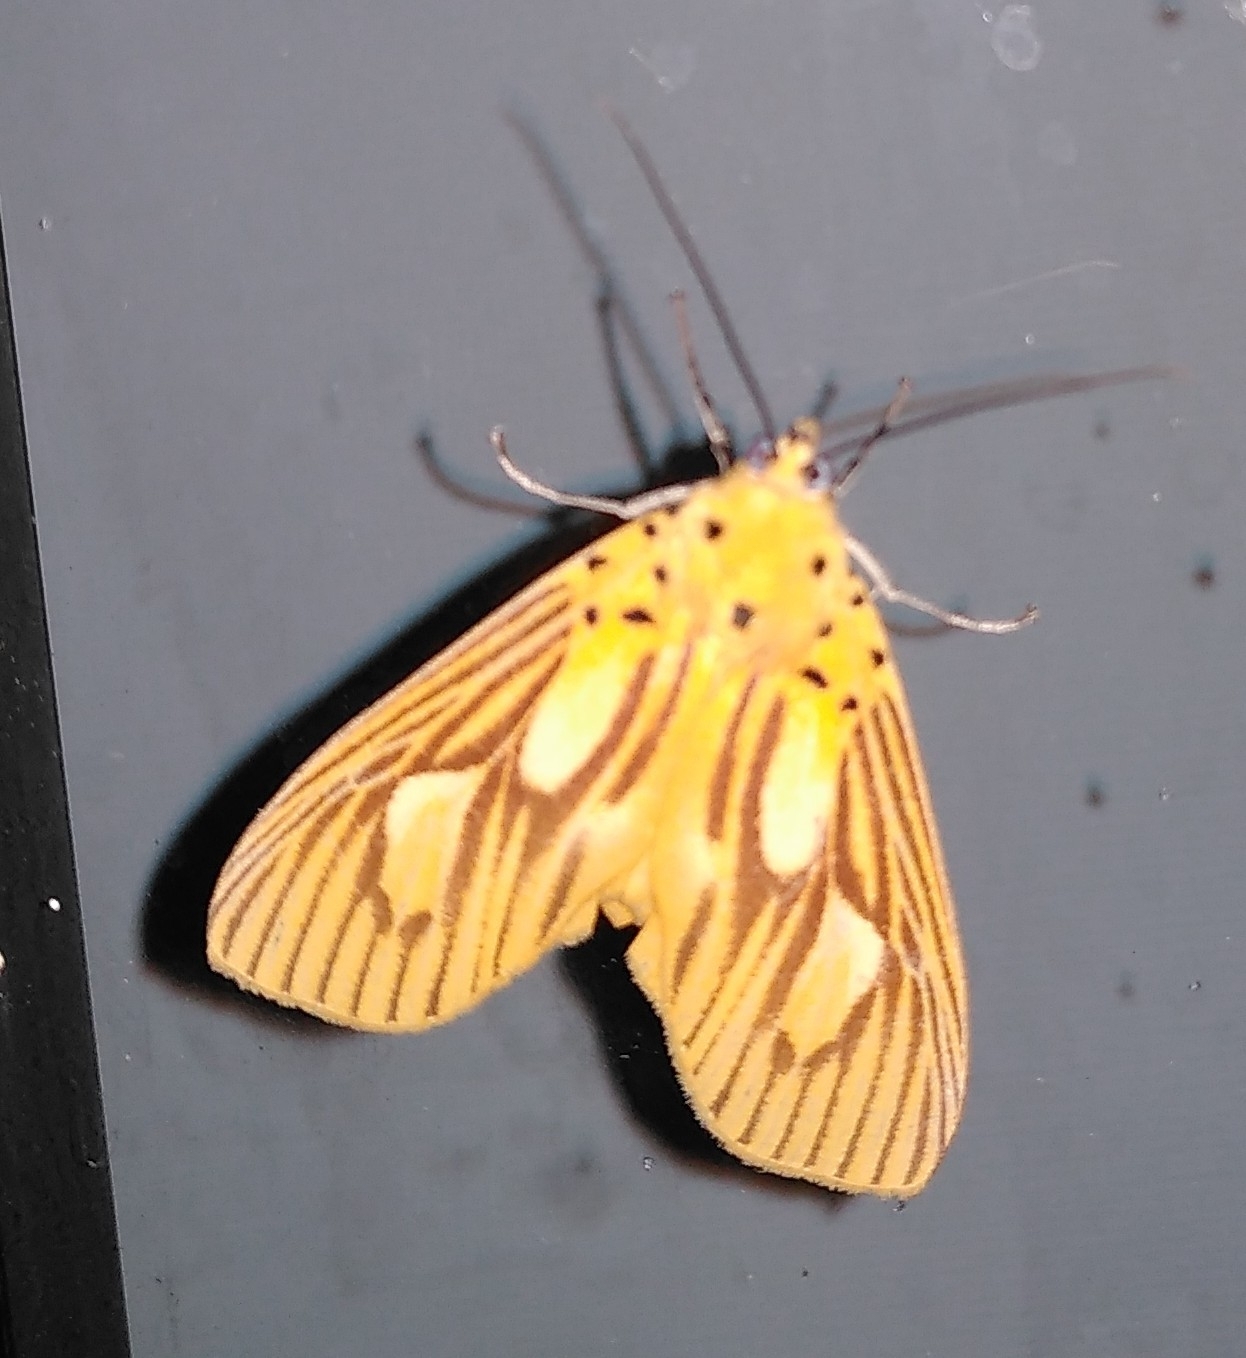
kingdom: Animalia
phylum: Arthropoda
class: Insecta
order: Lepidoptera
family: Erebidae
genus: Asota
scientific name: Asota orbona
